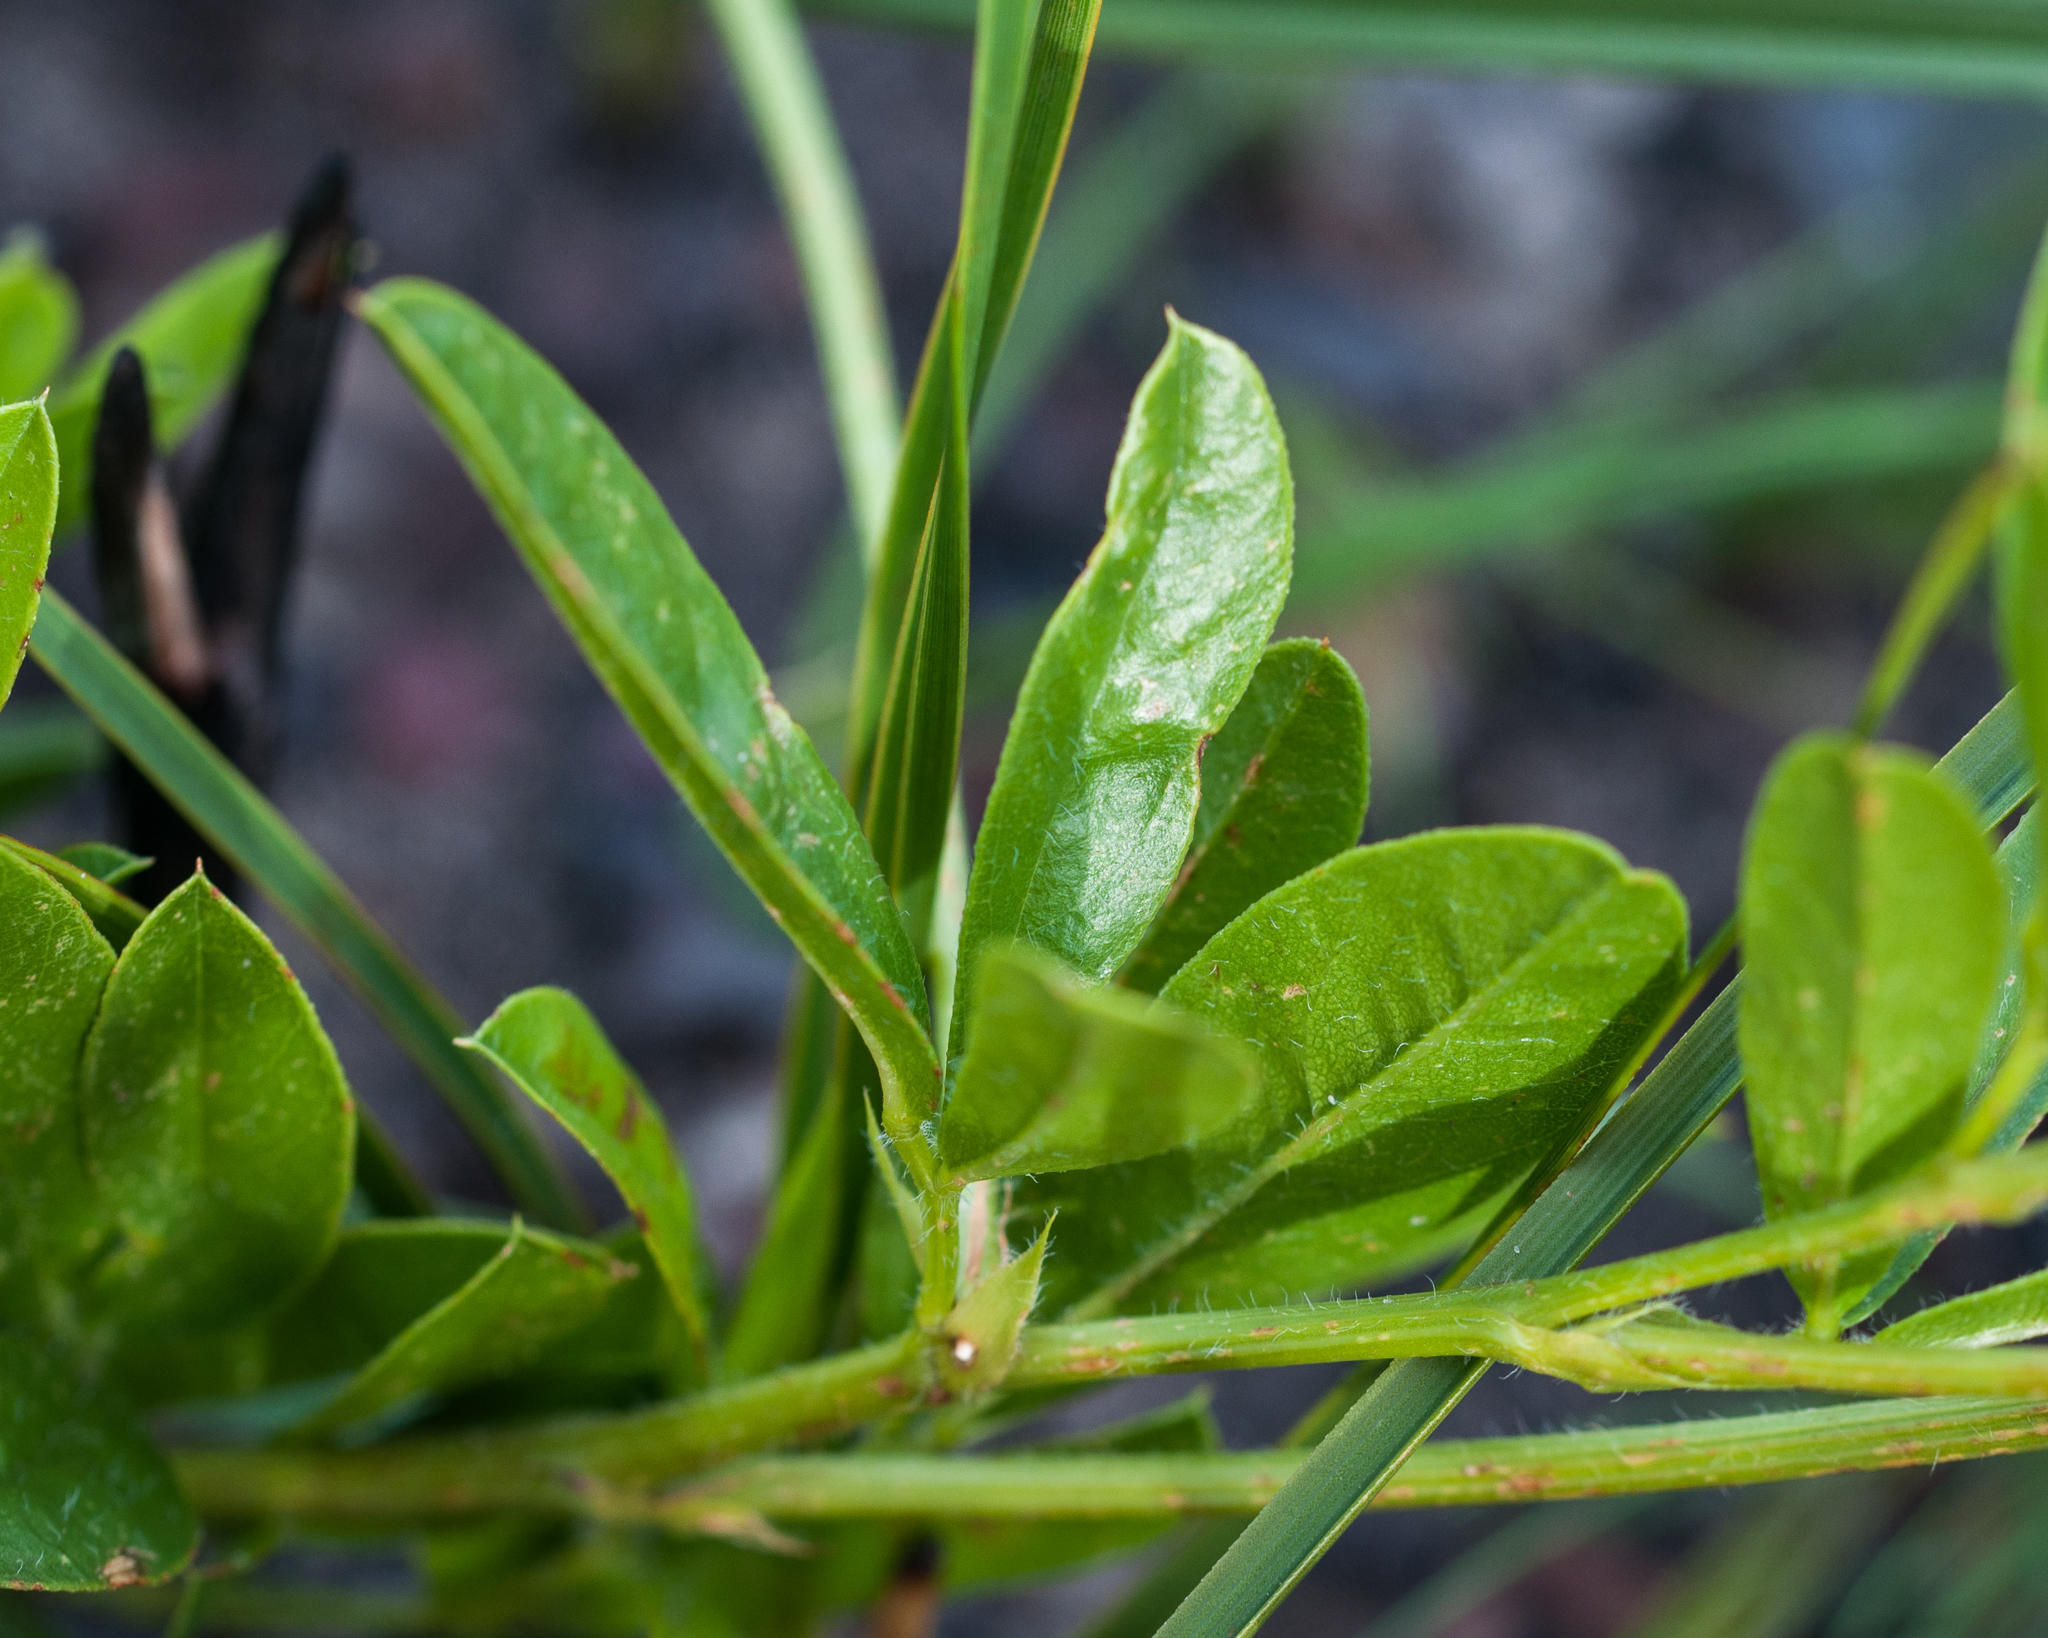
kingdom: Plantae
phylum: Tracheophyta
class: Magnoliopsida
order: Fabales
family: Fabaceae
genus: Psoralea
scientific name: Psoralea zeyheri
